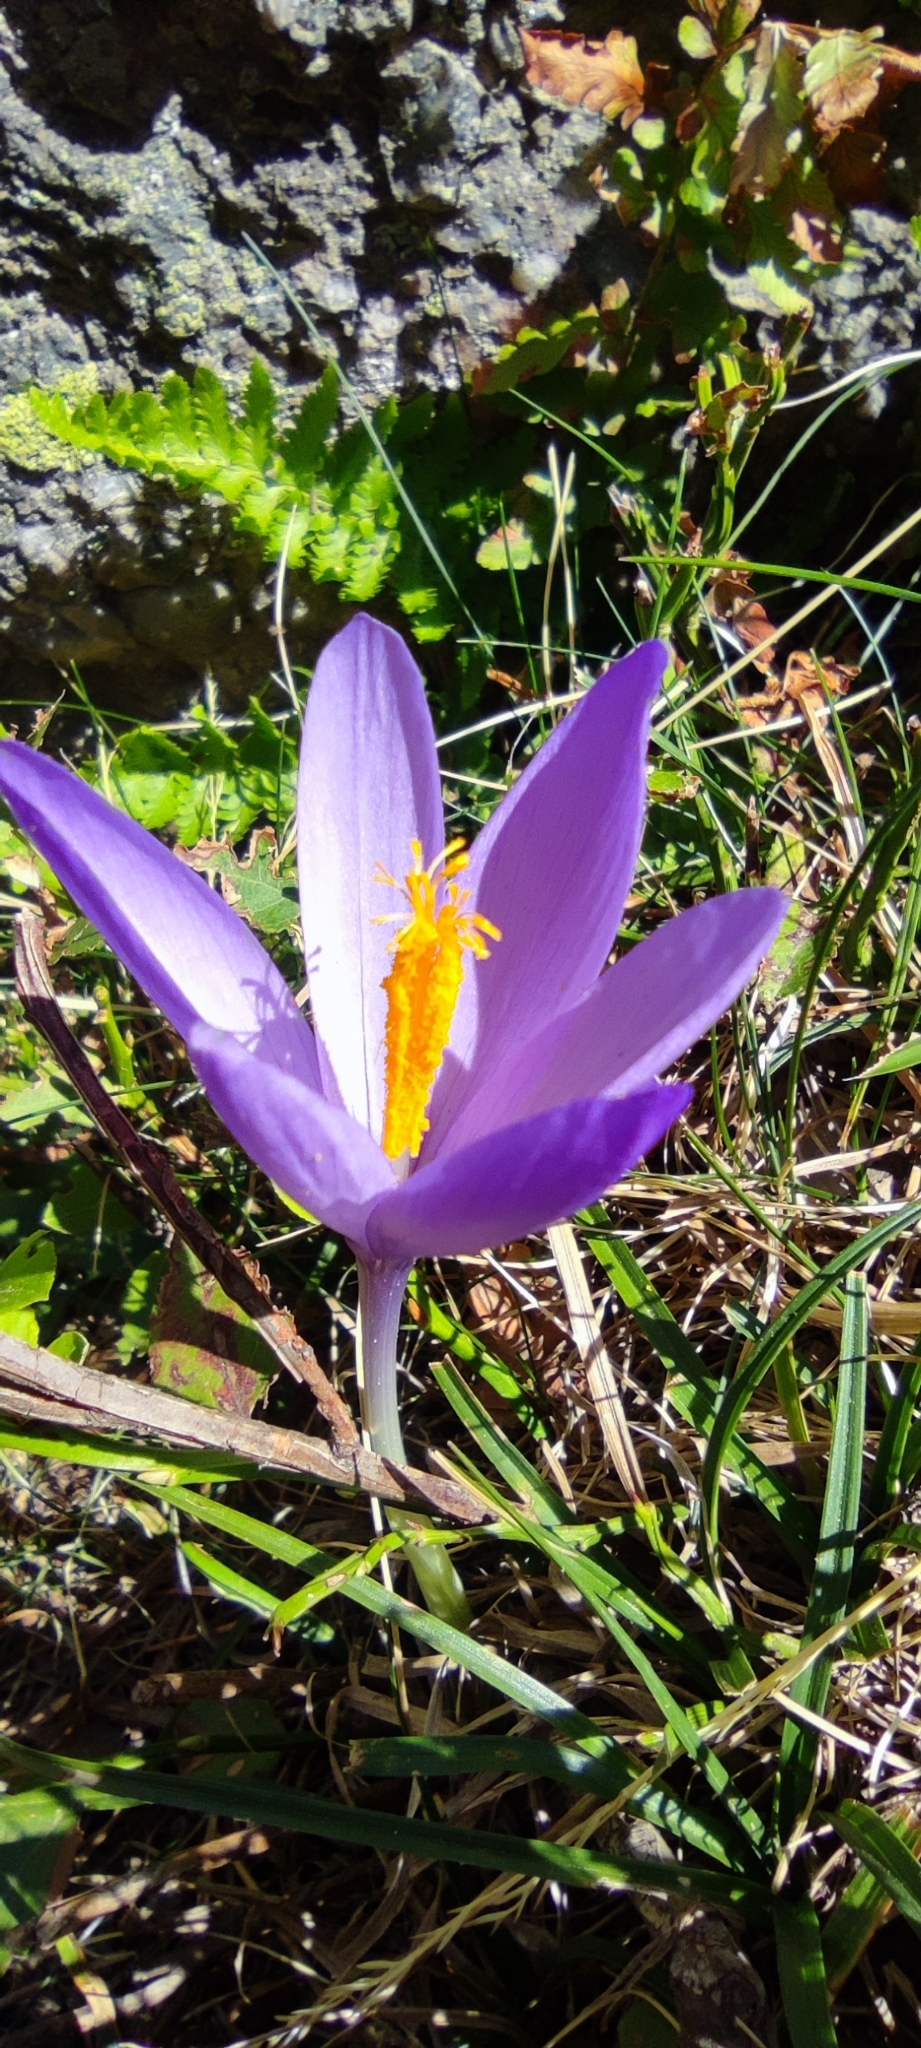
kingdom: Plantae
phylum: Tracheophyta
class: Liliopsida
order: Asparagales
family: Iridaceae
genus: Crocus
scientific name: Crocus nudiflorus
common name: Autumn crocus
